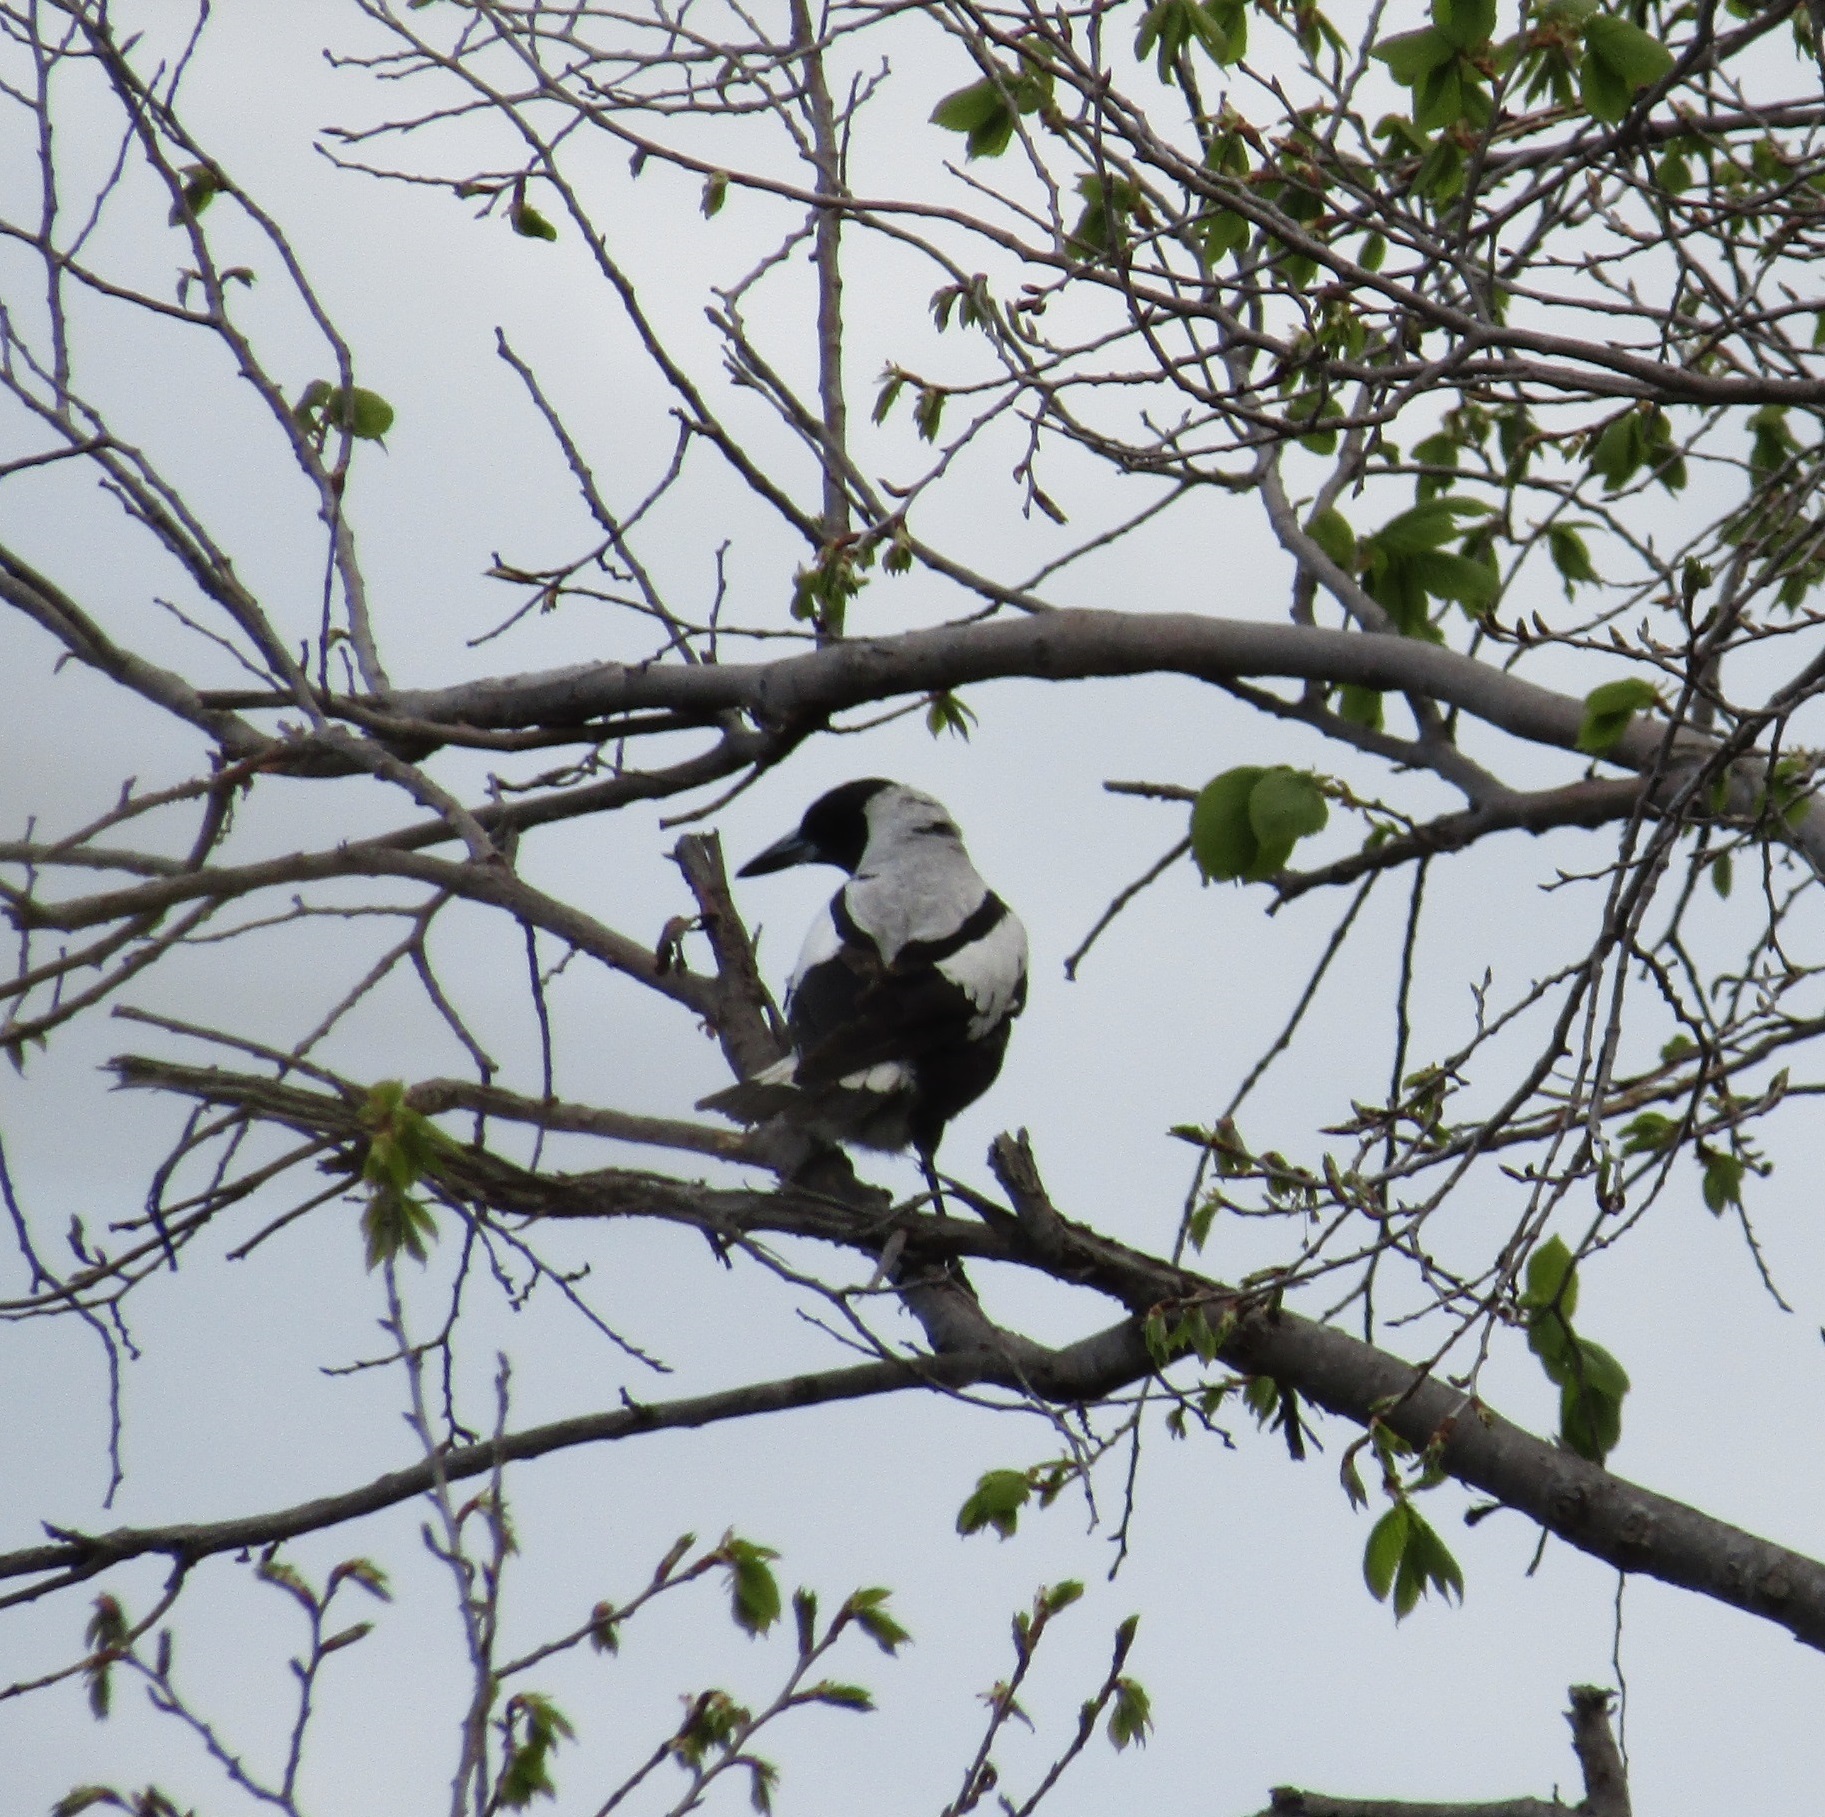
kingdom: Animalia
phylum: Chordata
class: Aves
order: Passeriformes
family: Cracticidae
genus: Gymnorhina
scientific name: Gymnorhina tibicen
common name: Australian magpie
